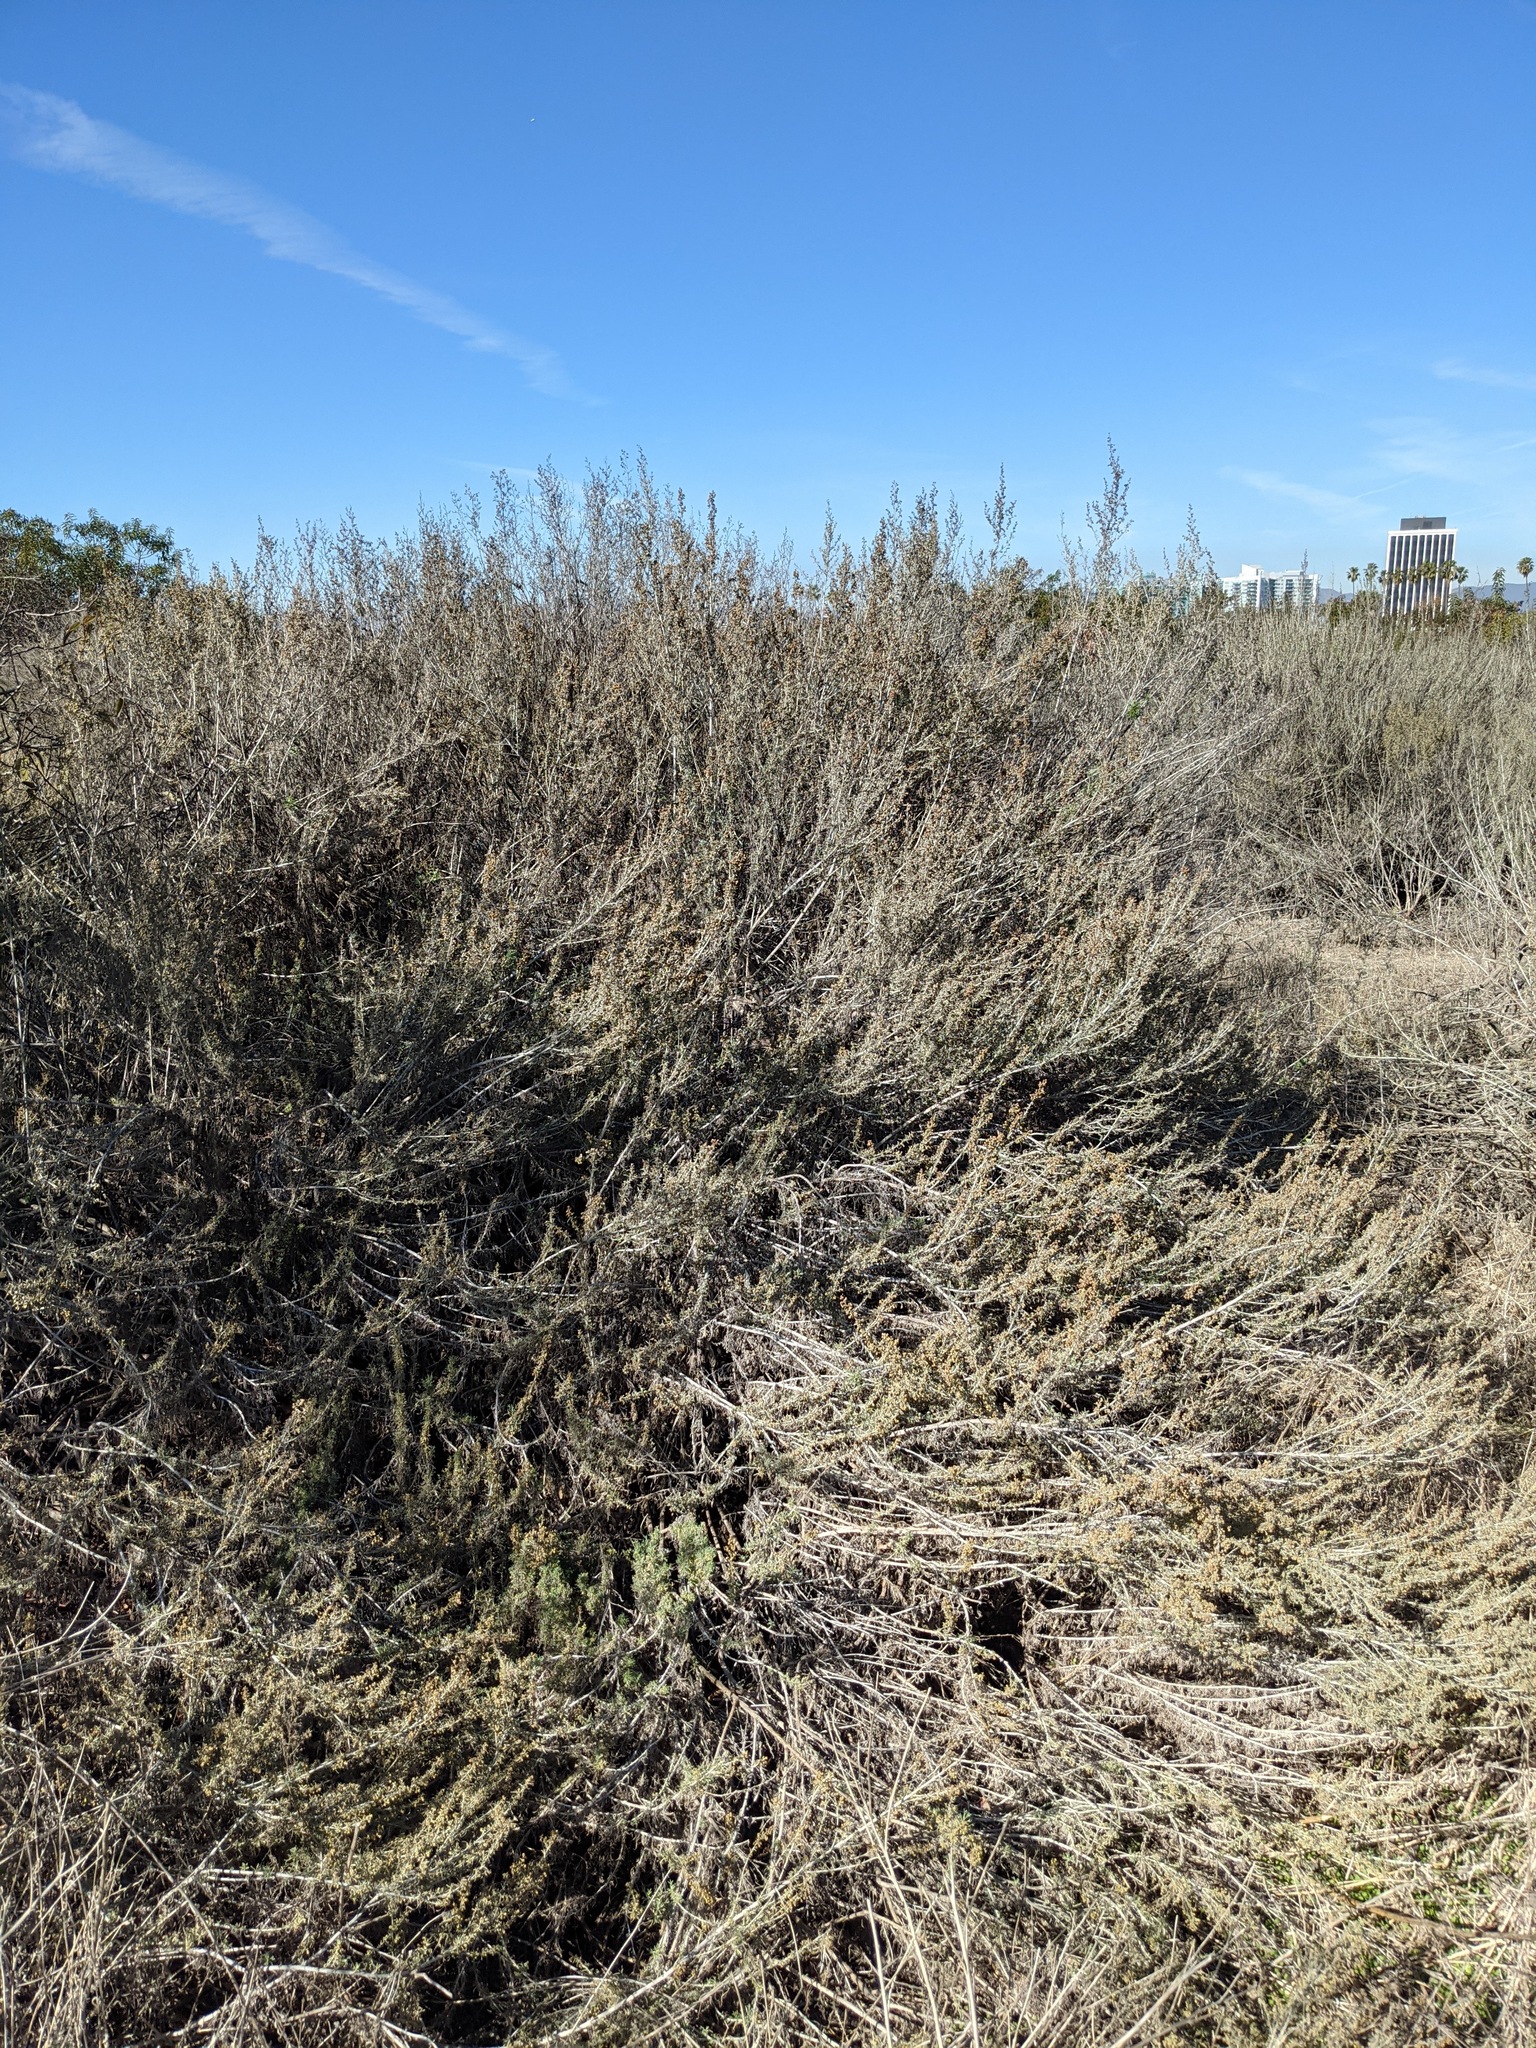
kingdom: Plantae
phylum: Tracheophyta
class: Magnoliopsida
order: Asterales
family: Asteraceae
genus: Artemisia
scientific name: Artemisia californica
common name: California sagebrush
